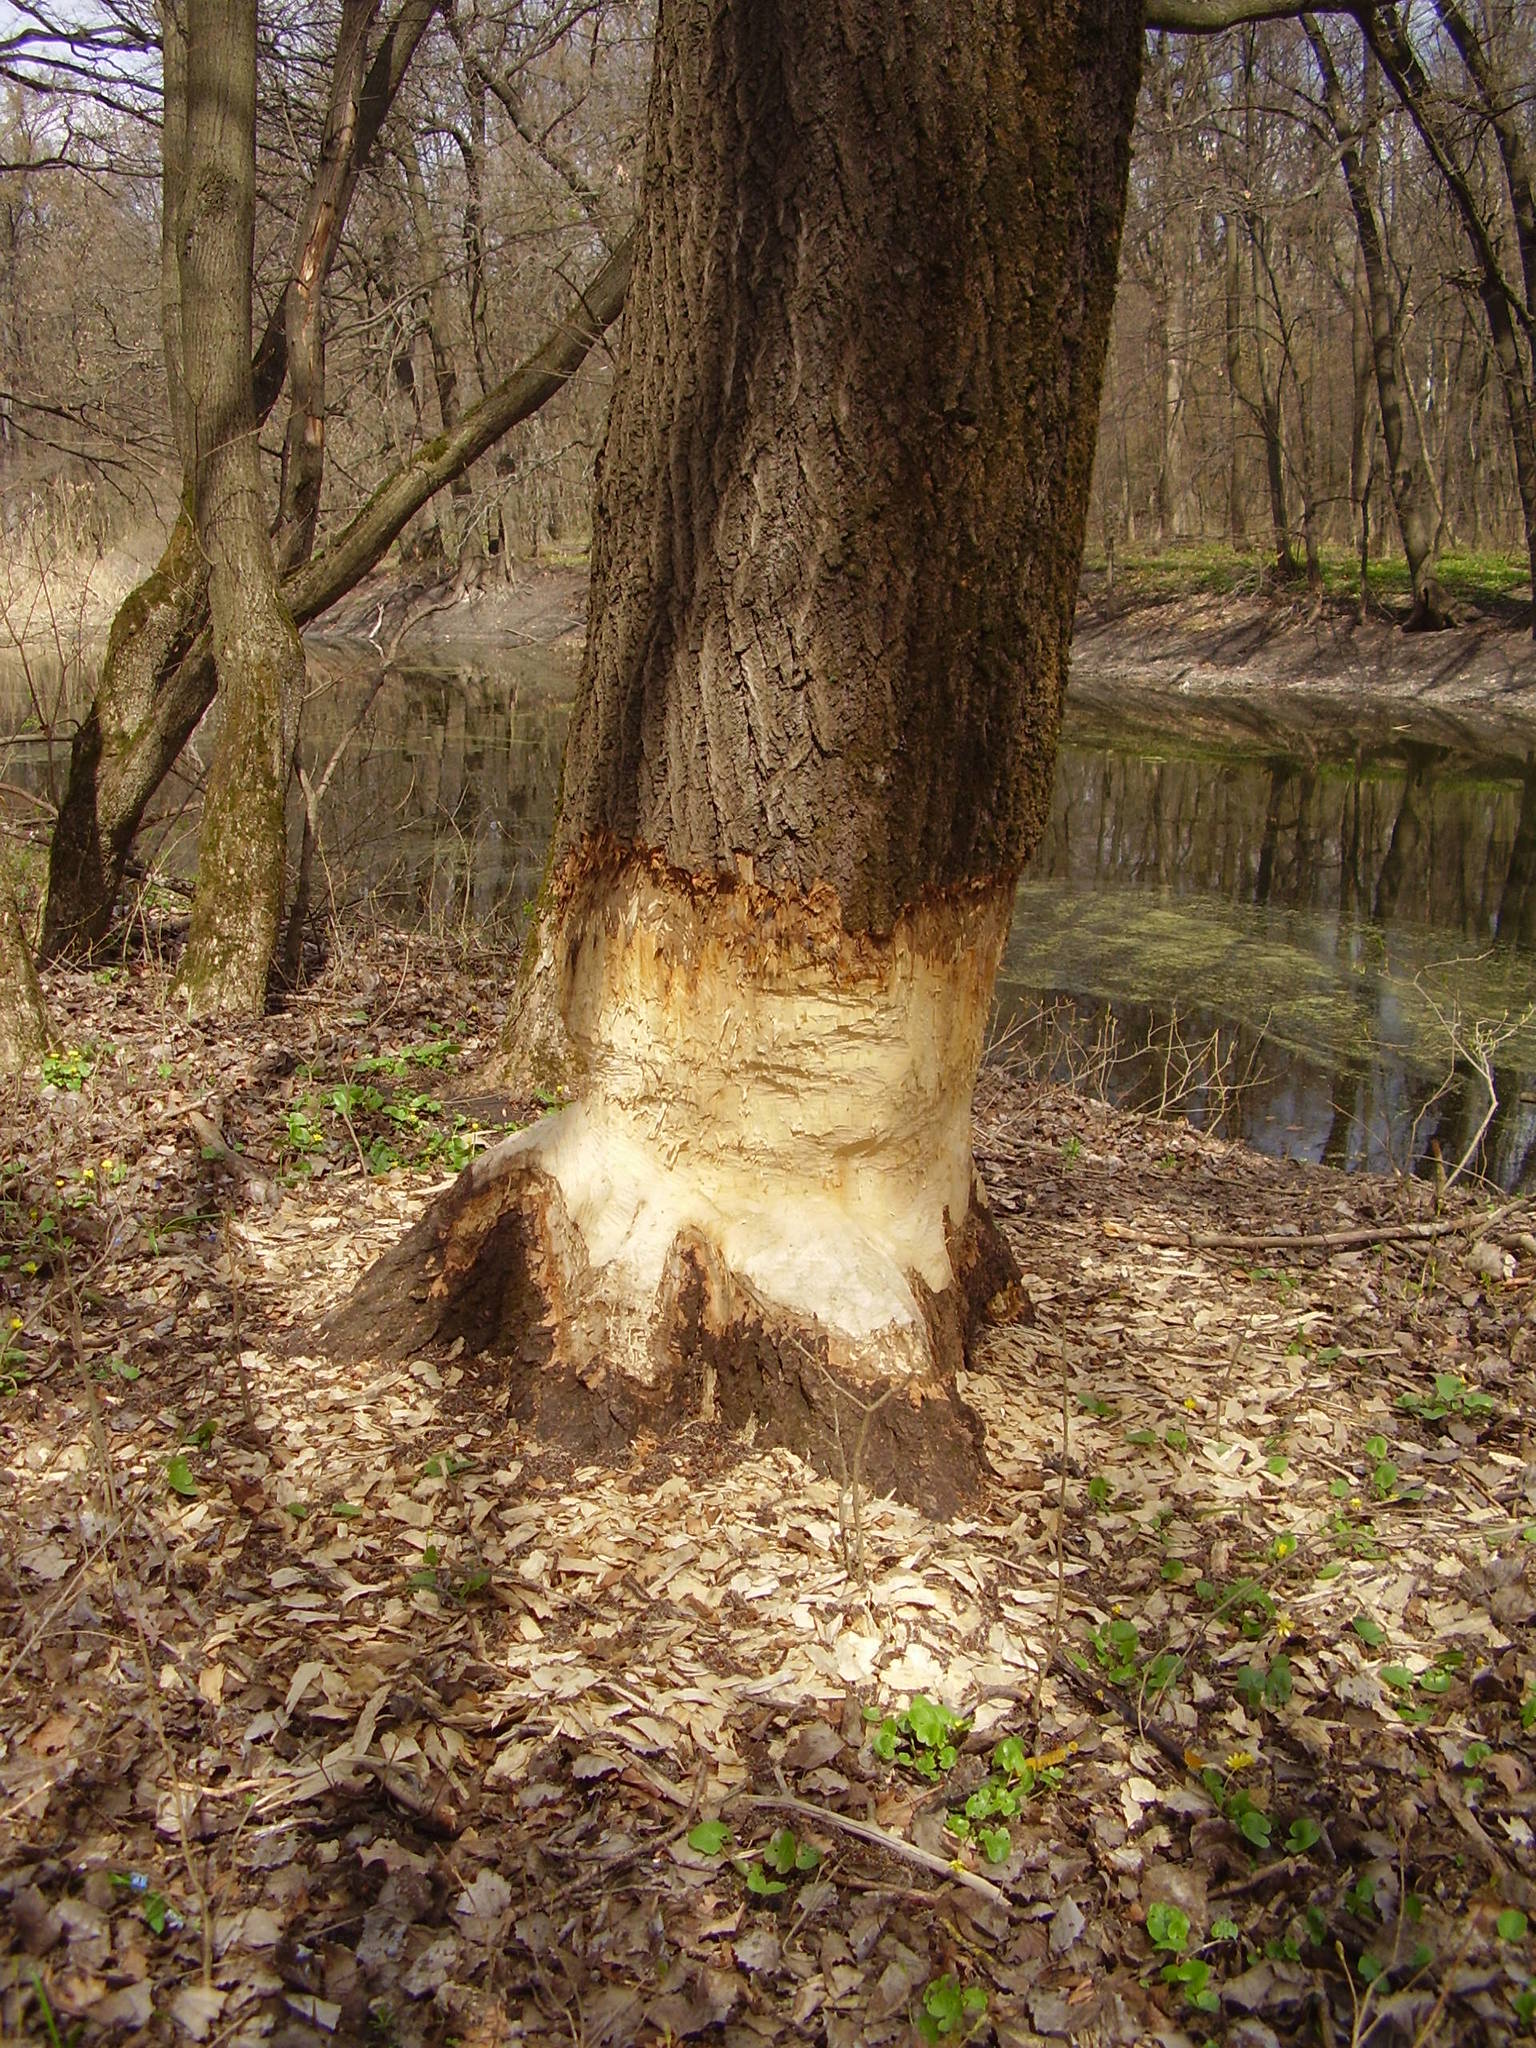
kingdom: Animalia
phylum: Chordata
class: Mammalia
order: Rodentia
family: Castoridae
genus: Castor
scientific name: Castor fiber
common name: Eurasian beaver
